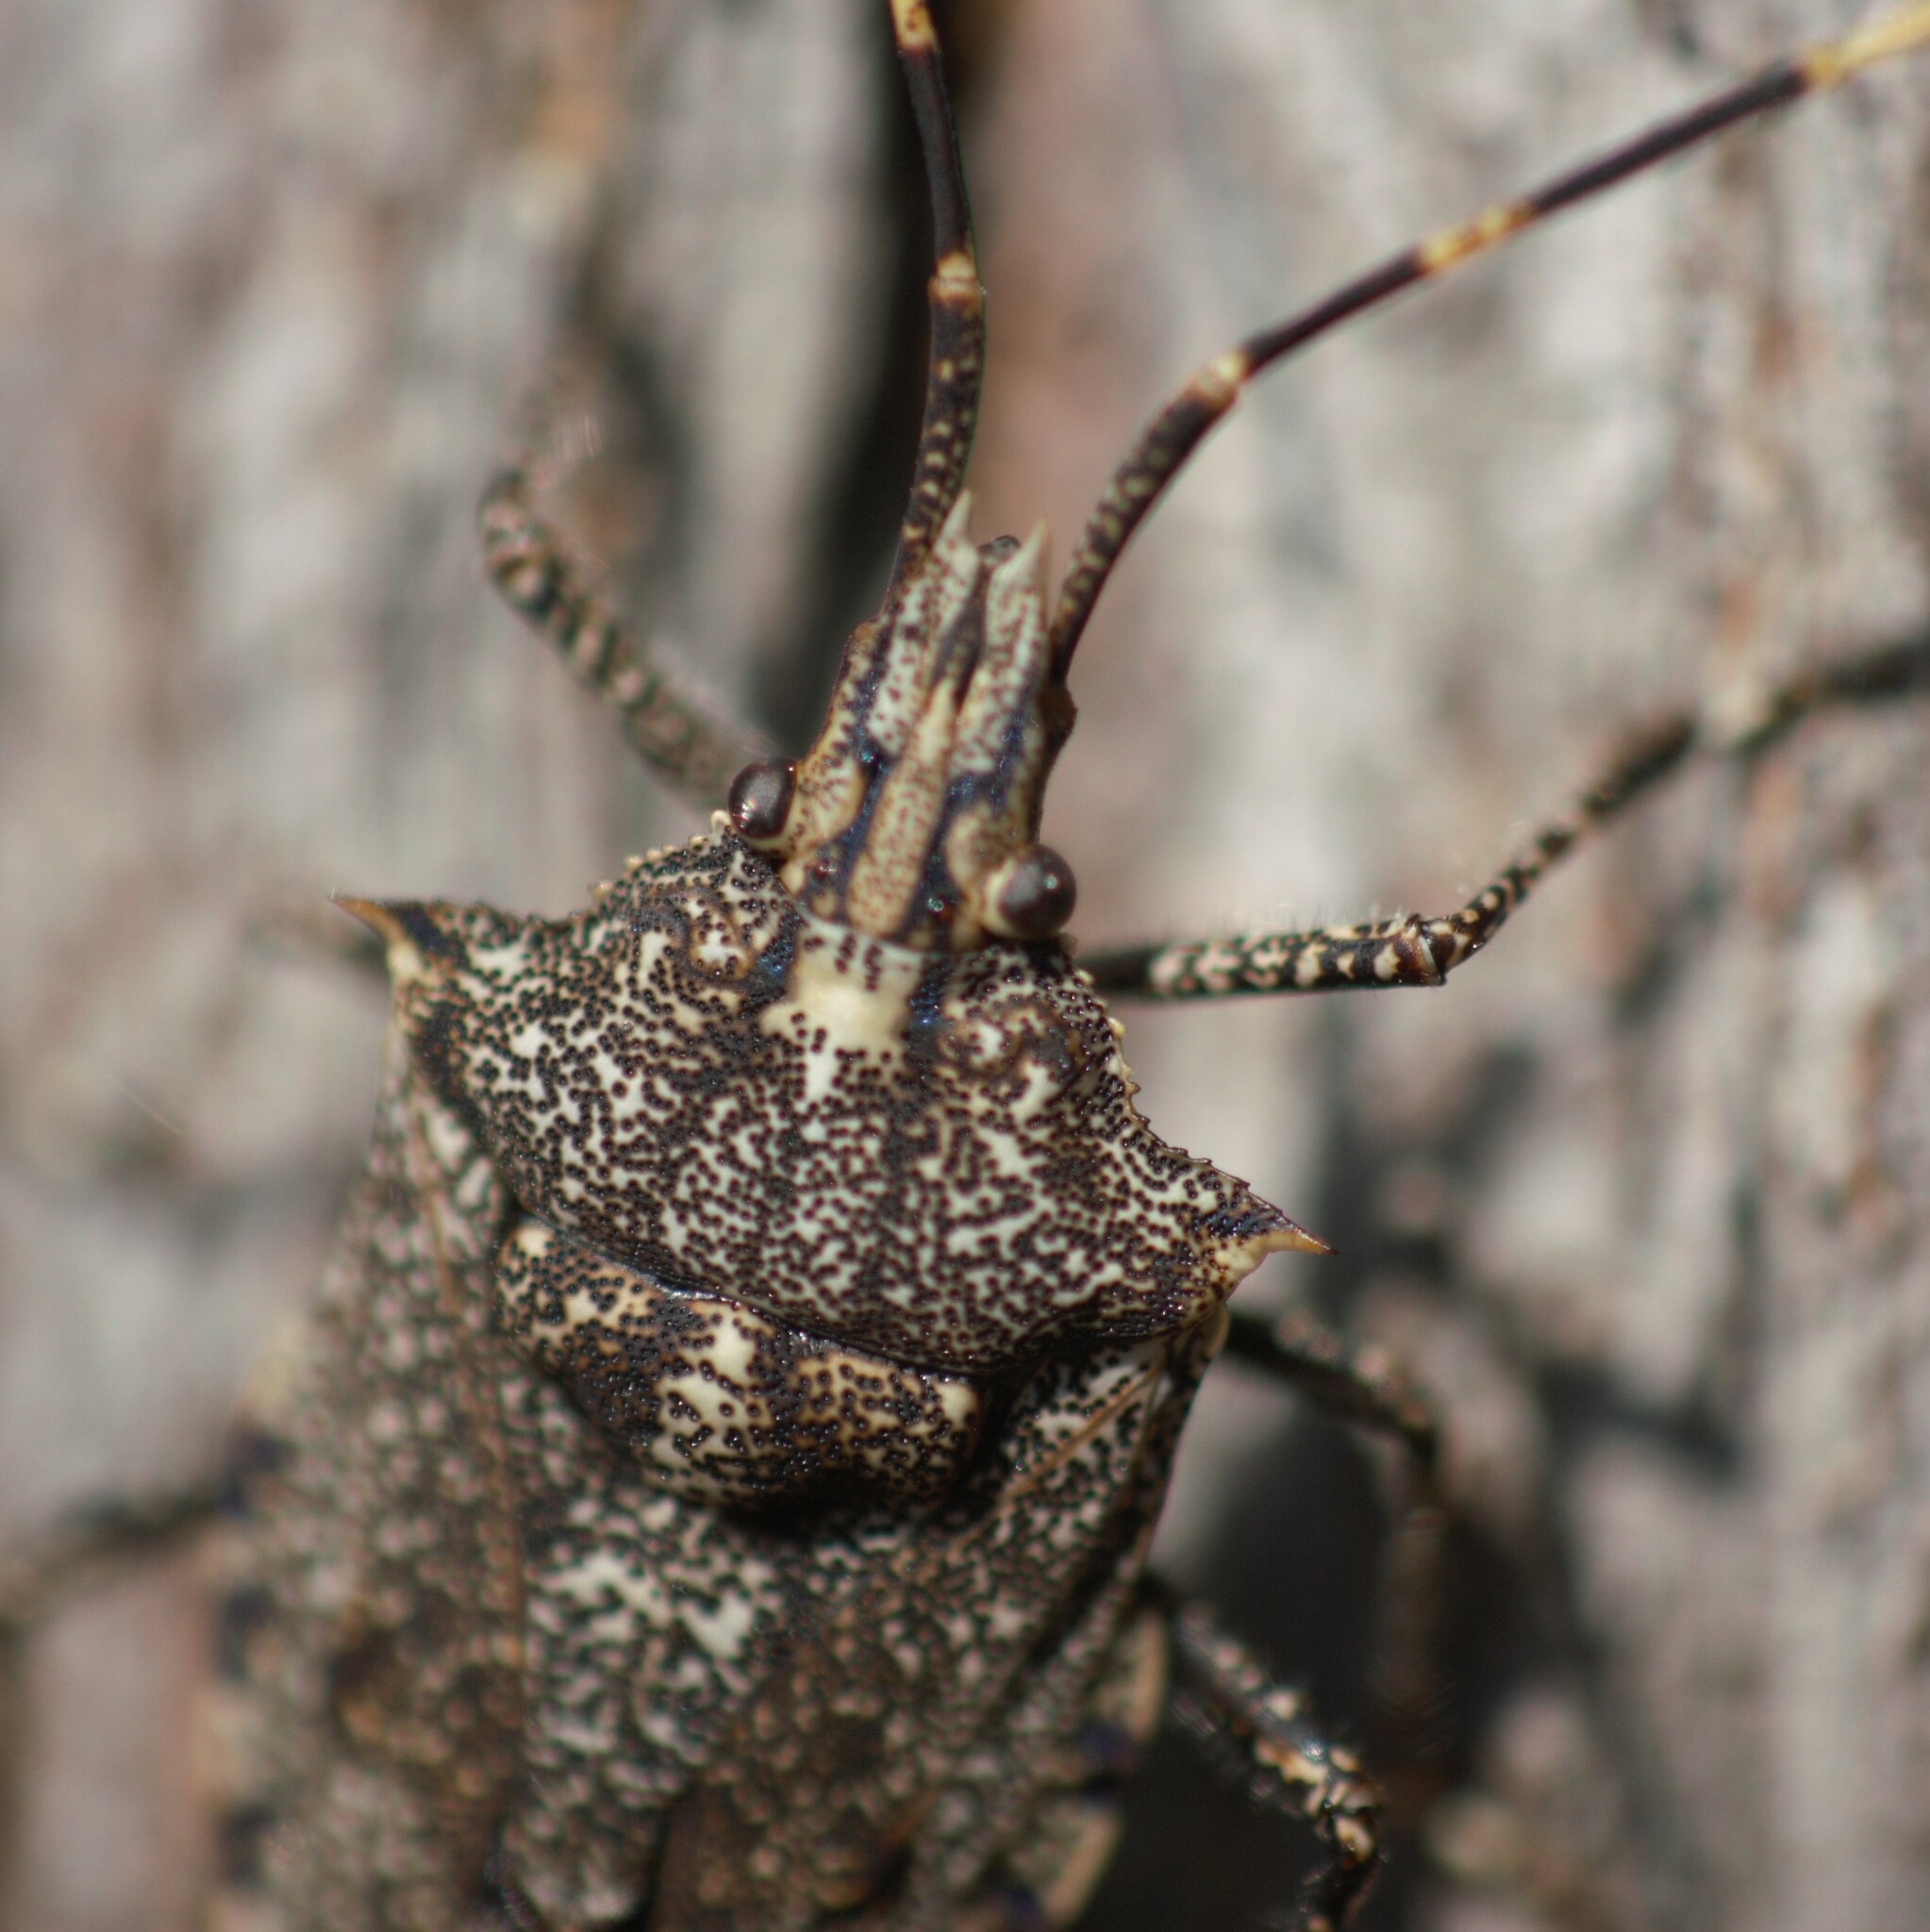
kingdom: Animalia
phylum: Arthropoda
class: Insecta
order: Hemiptera
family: Pentatomidae
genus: Alcaeus
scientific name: Alcaeus
